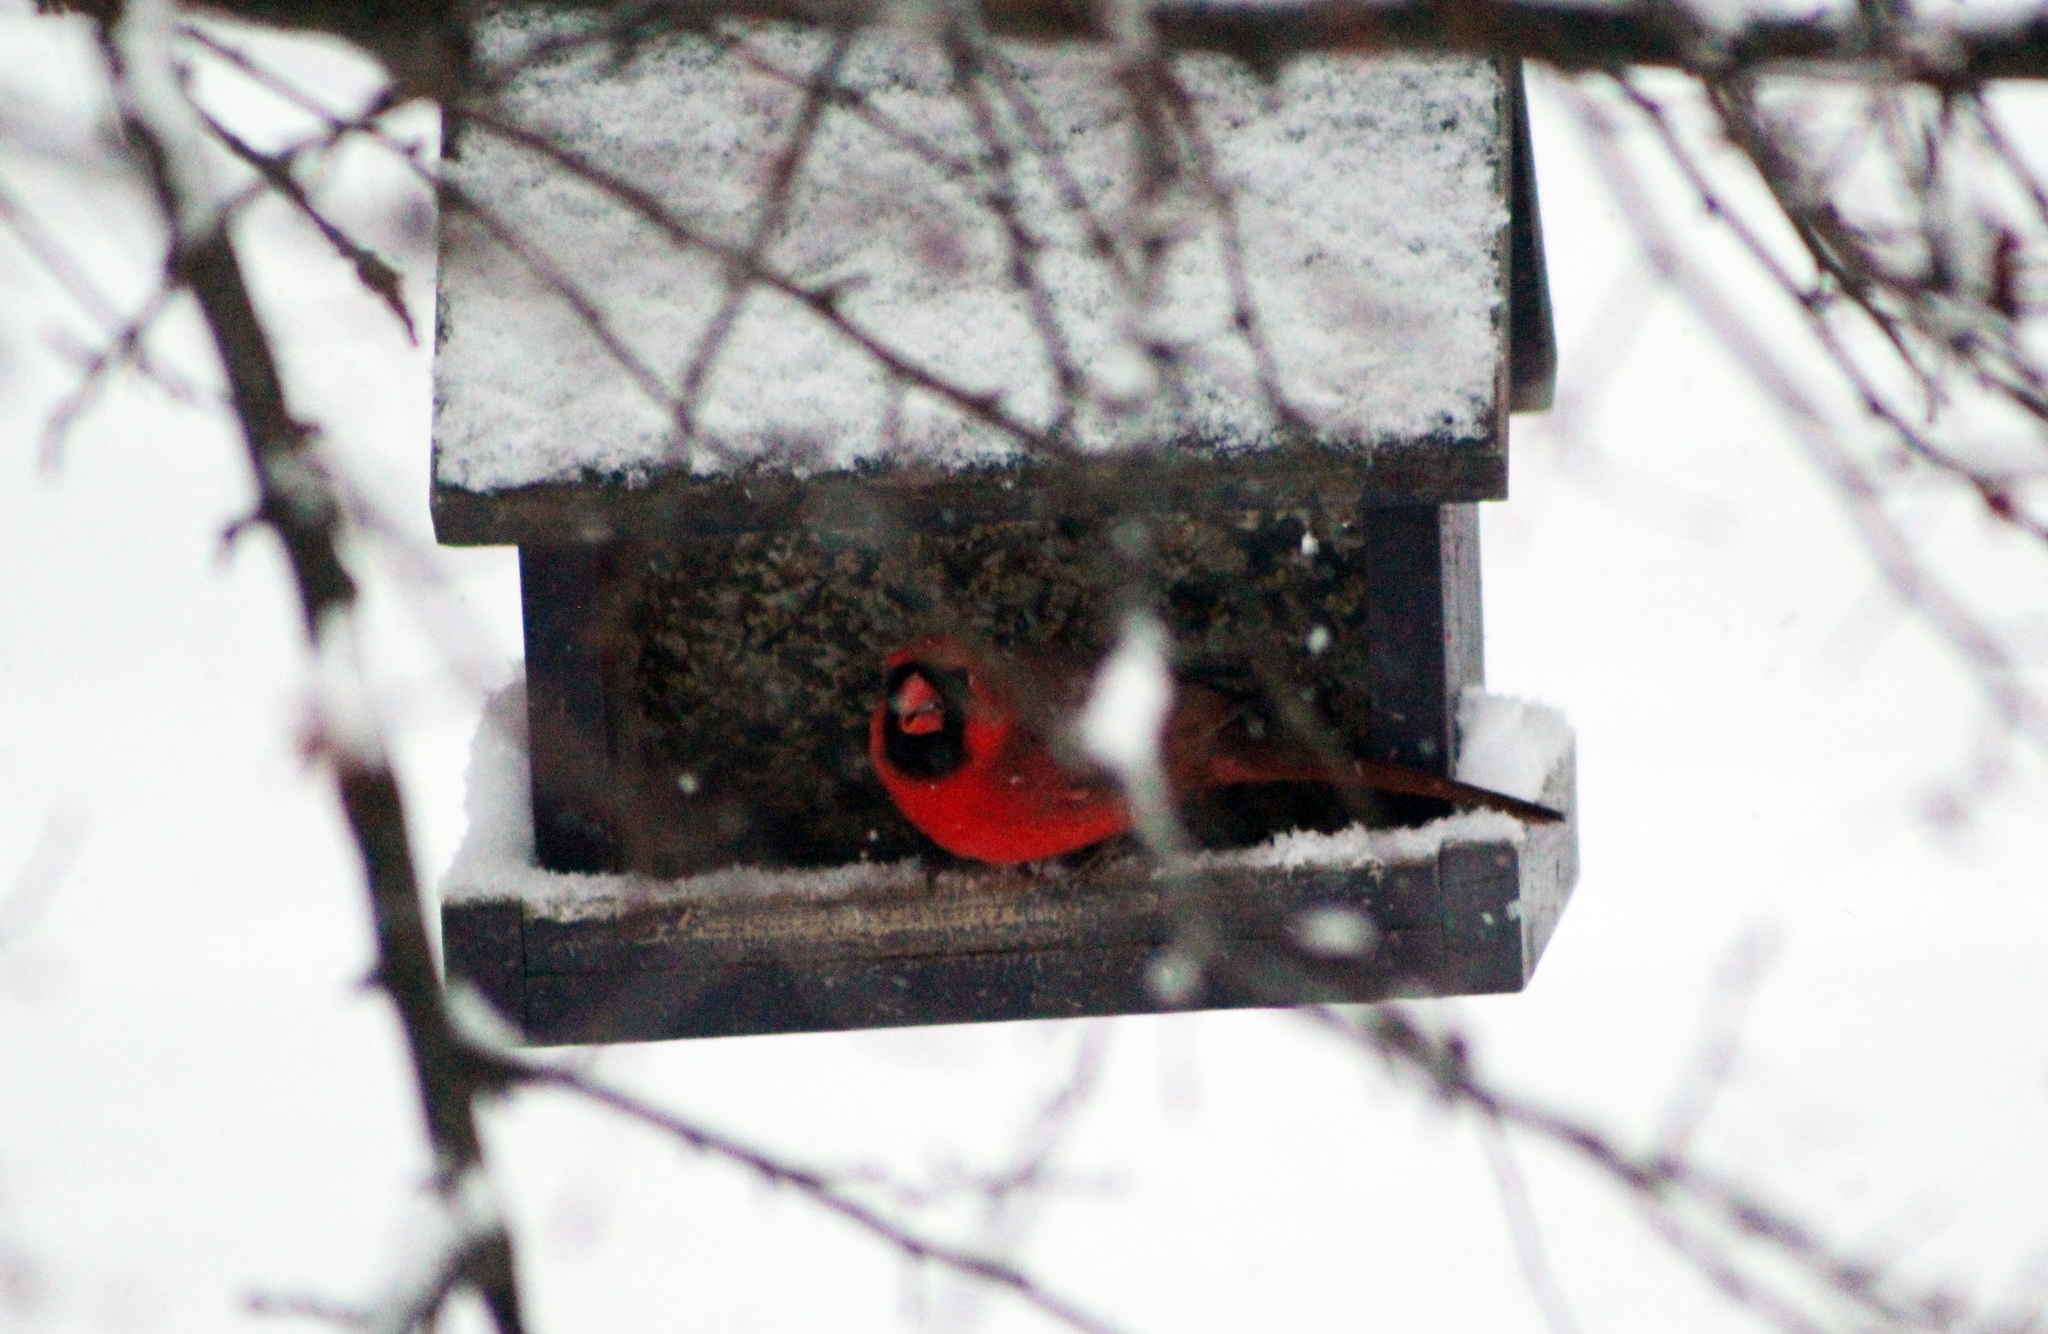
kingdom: Animalia
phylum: Chordata
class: Aves
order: Passeriformes
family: Cardinalidae
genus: Cardinalis
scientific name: Cardinalis cardinalis
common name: Northern cardinal
